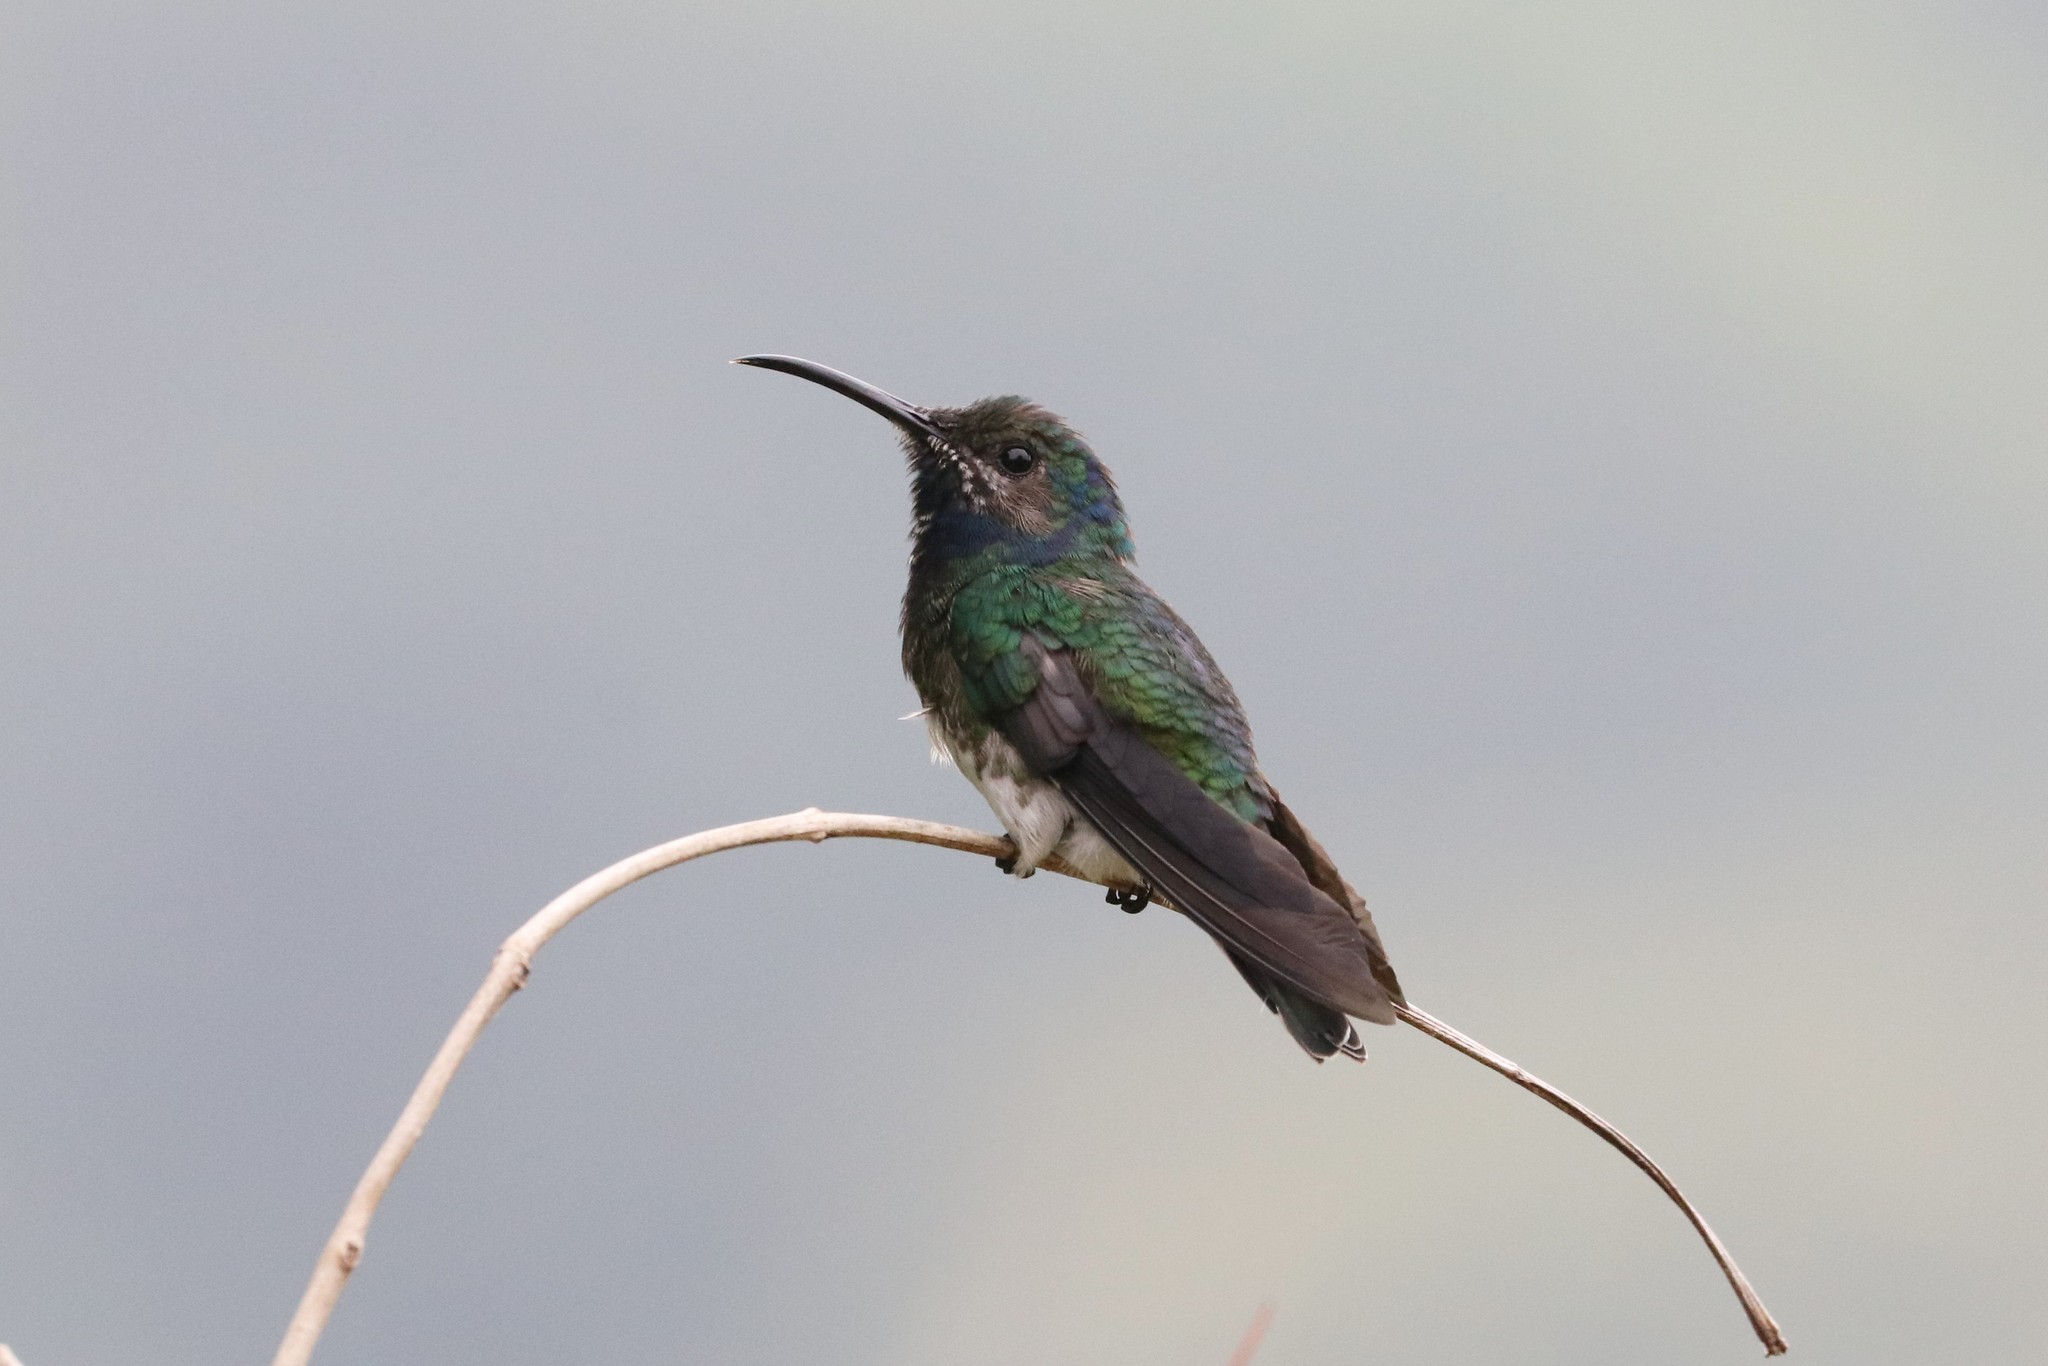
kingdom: Animalia
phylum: Chordata
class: Aves
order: Apodiformes
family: Trochilidae
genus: Florisuga
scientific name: Florisuga mellivora
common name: White-necked jacobin
